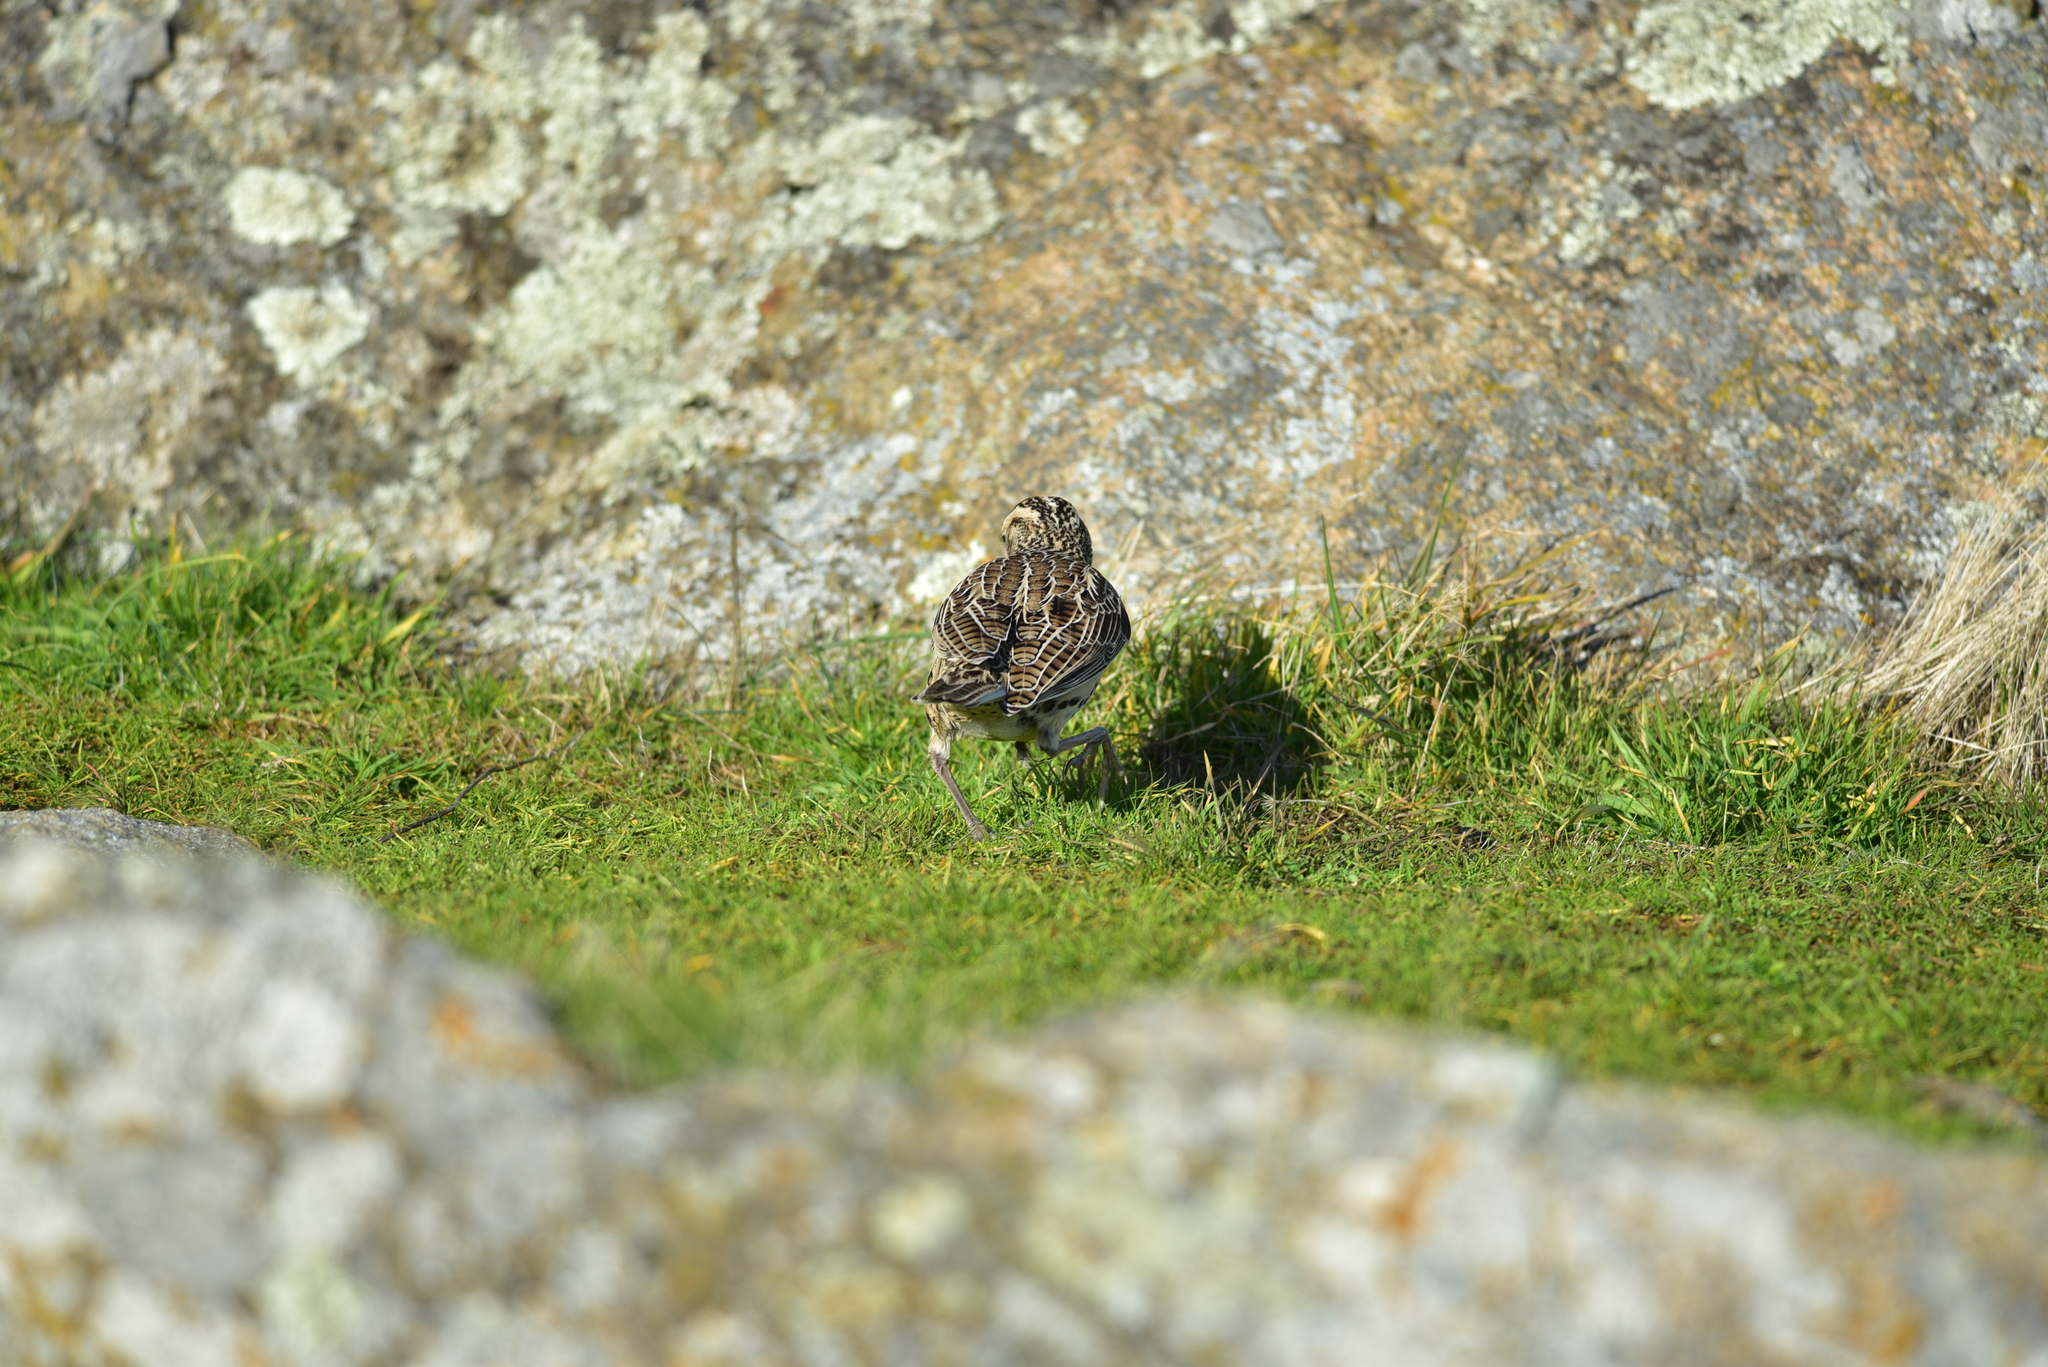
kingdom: Animalia
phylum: Chordata
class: Aves
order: Passeriformes
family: Icteridae
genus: Sturnella
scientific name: Sturnella neglecta
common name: Western meadowlark
